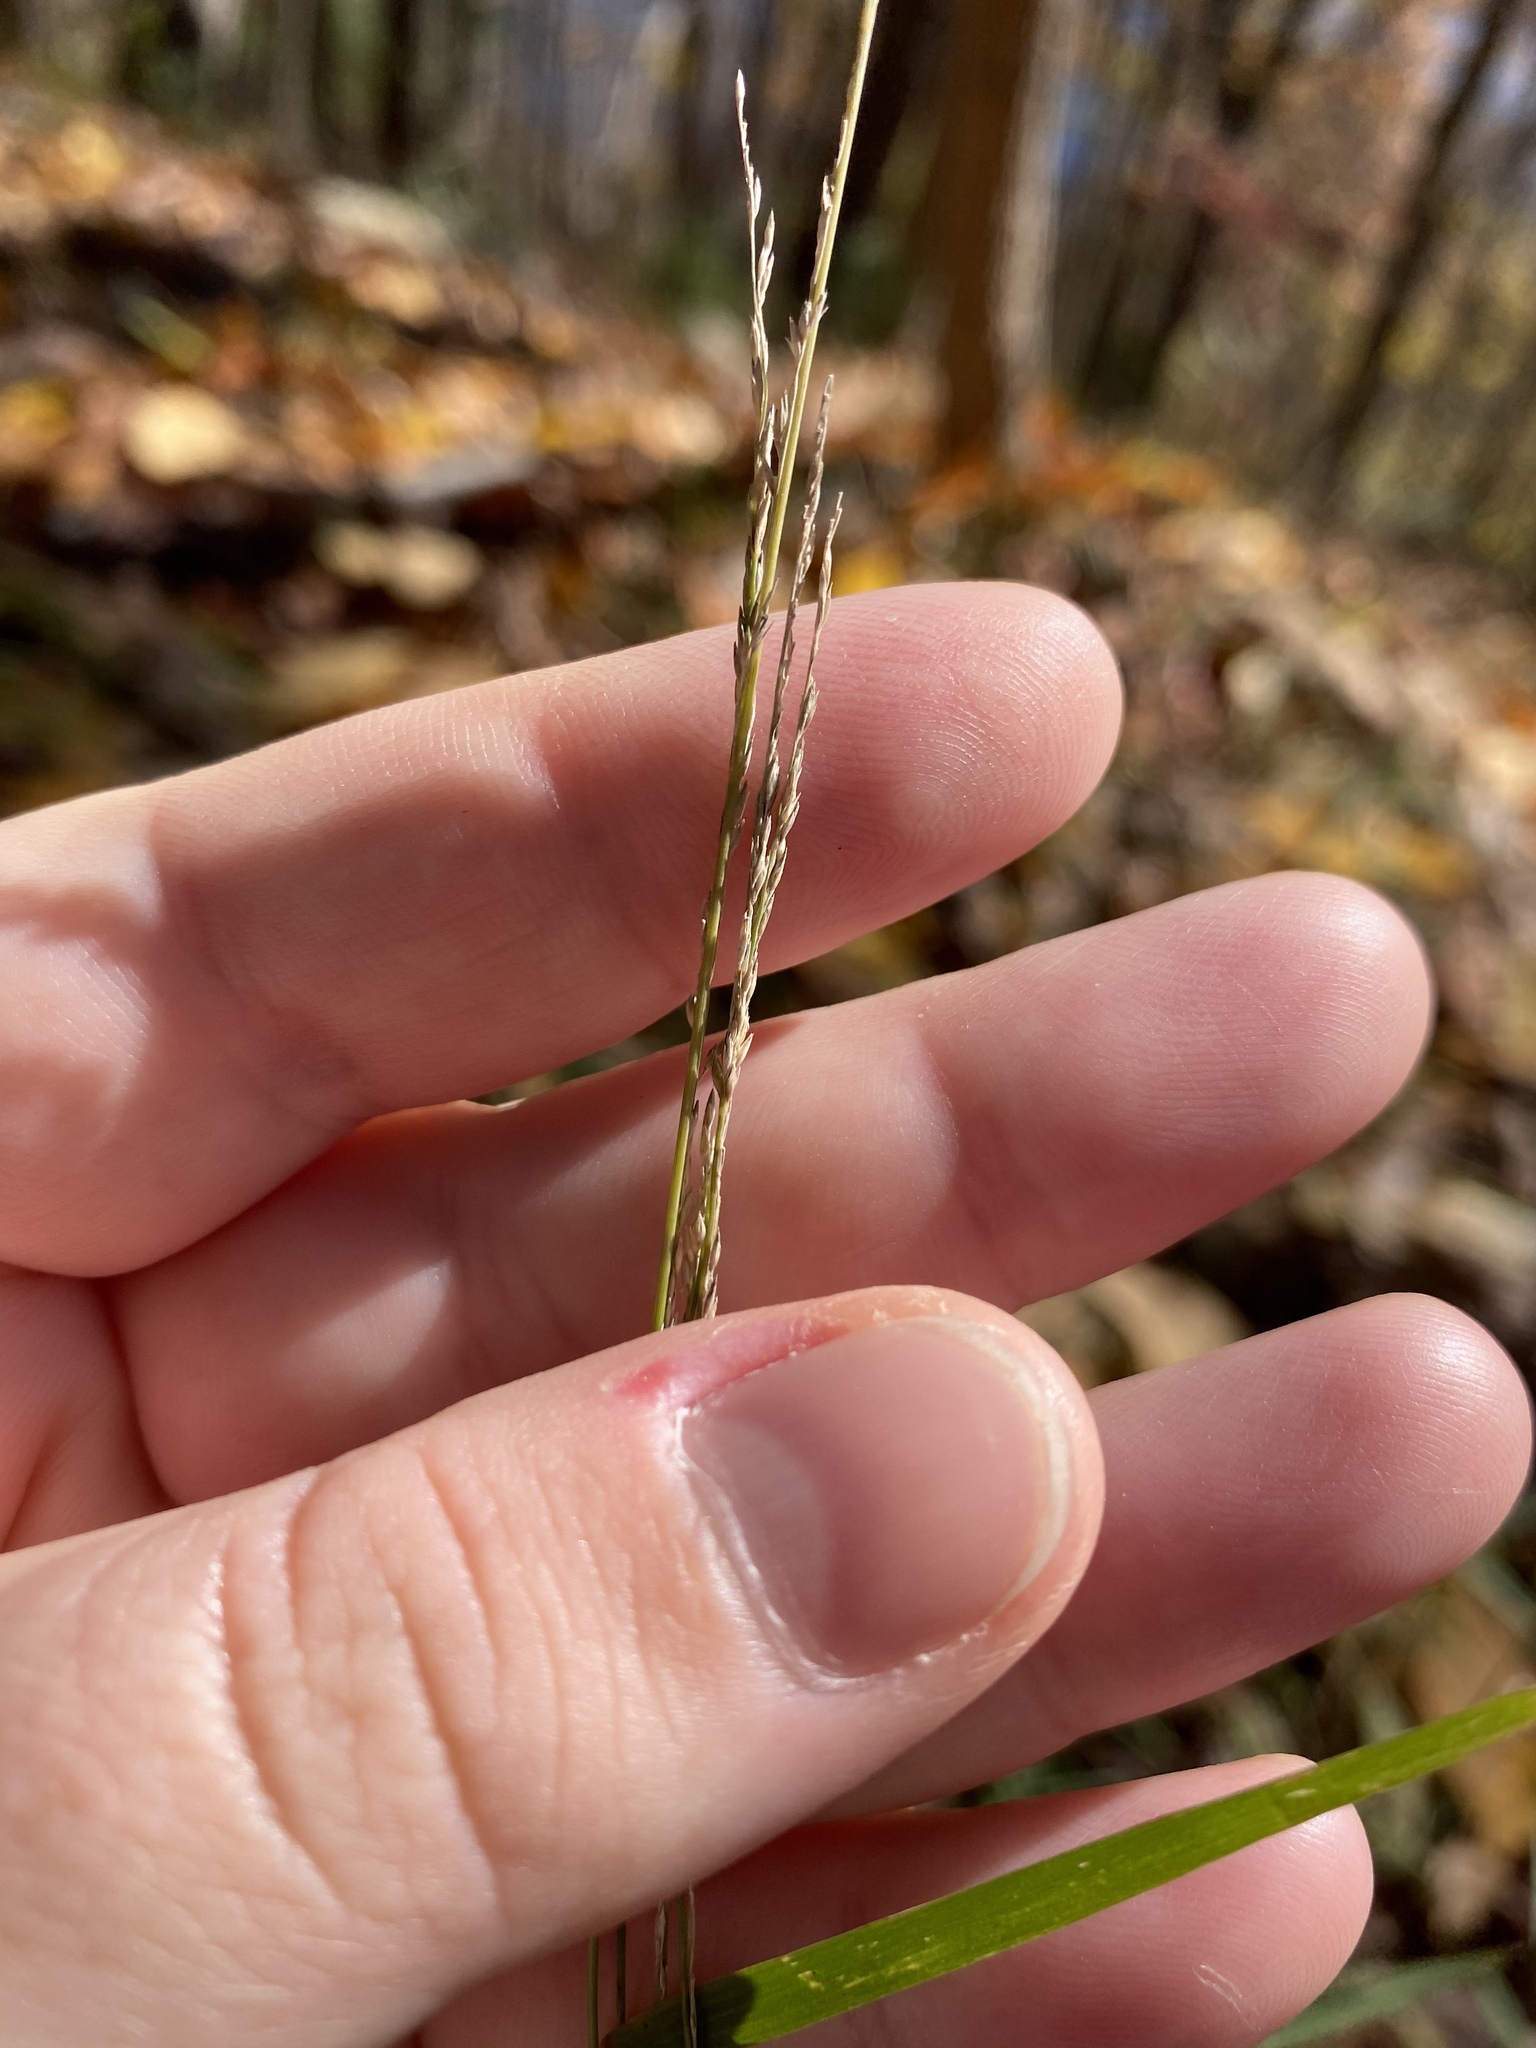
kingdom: Plantae
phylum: Tracheophyta
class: Liliopsida
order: Poales
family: Poaceae
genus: Muhlenbergia
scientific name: Muhlenbergia sobolifera
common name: Creeping muhly
